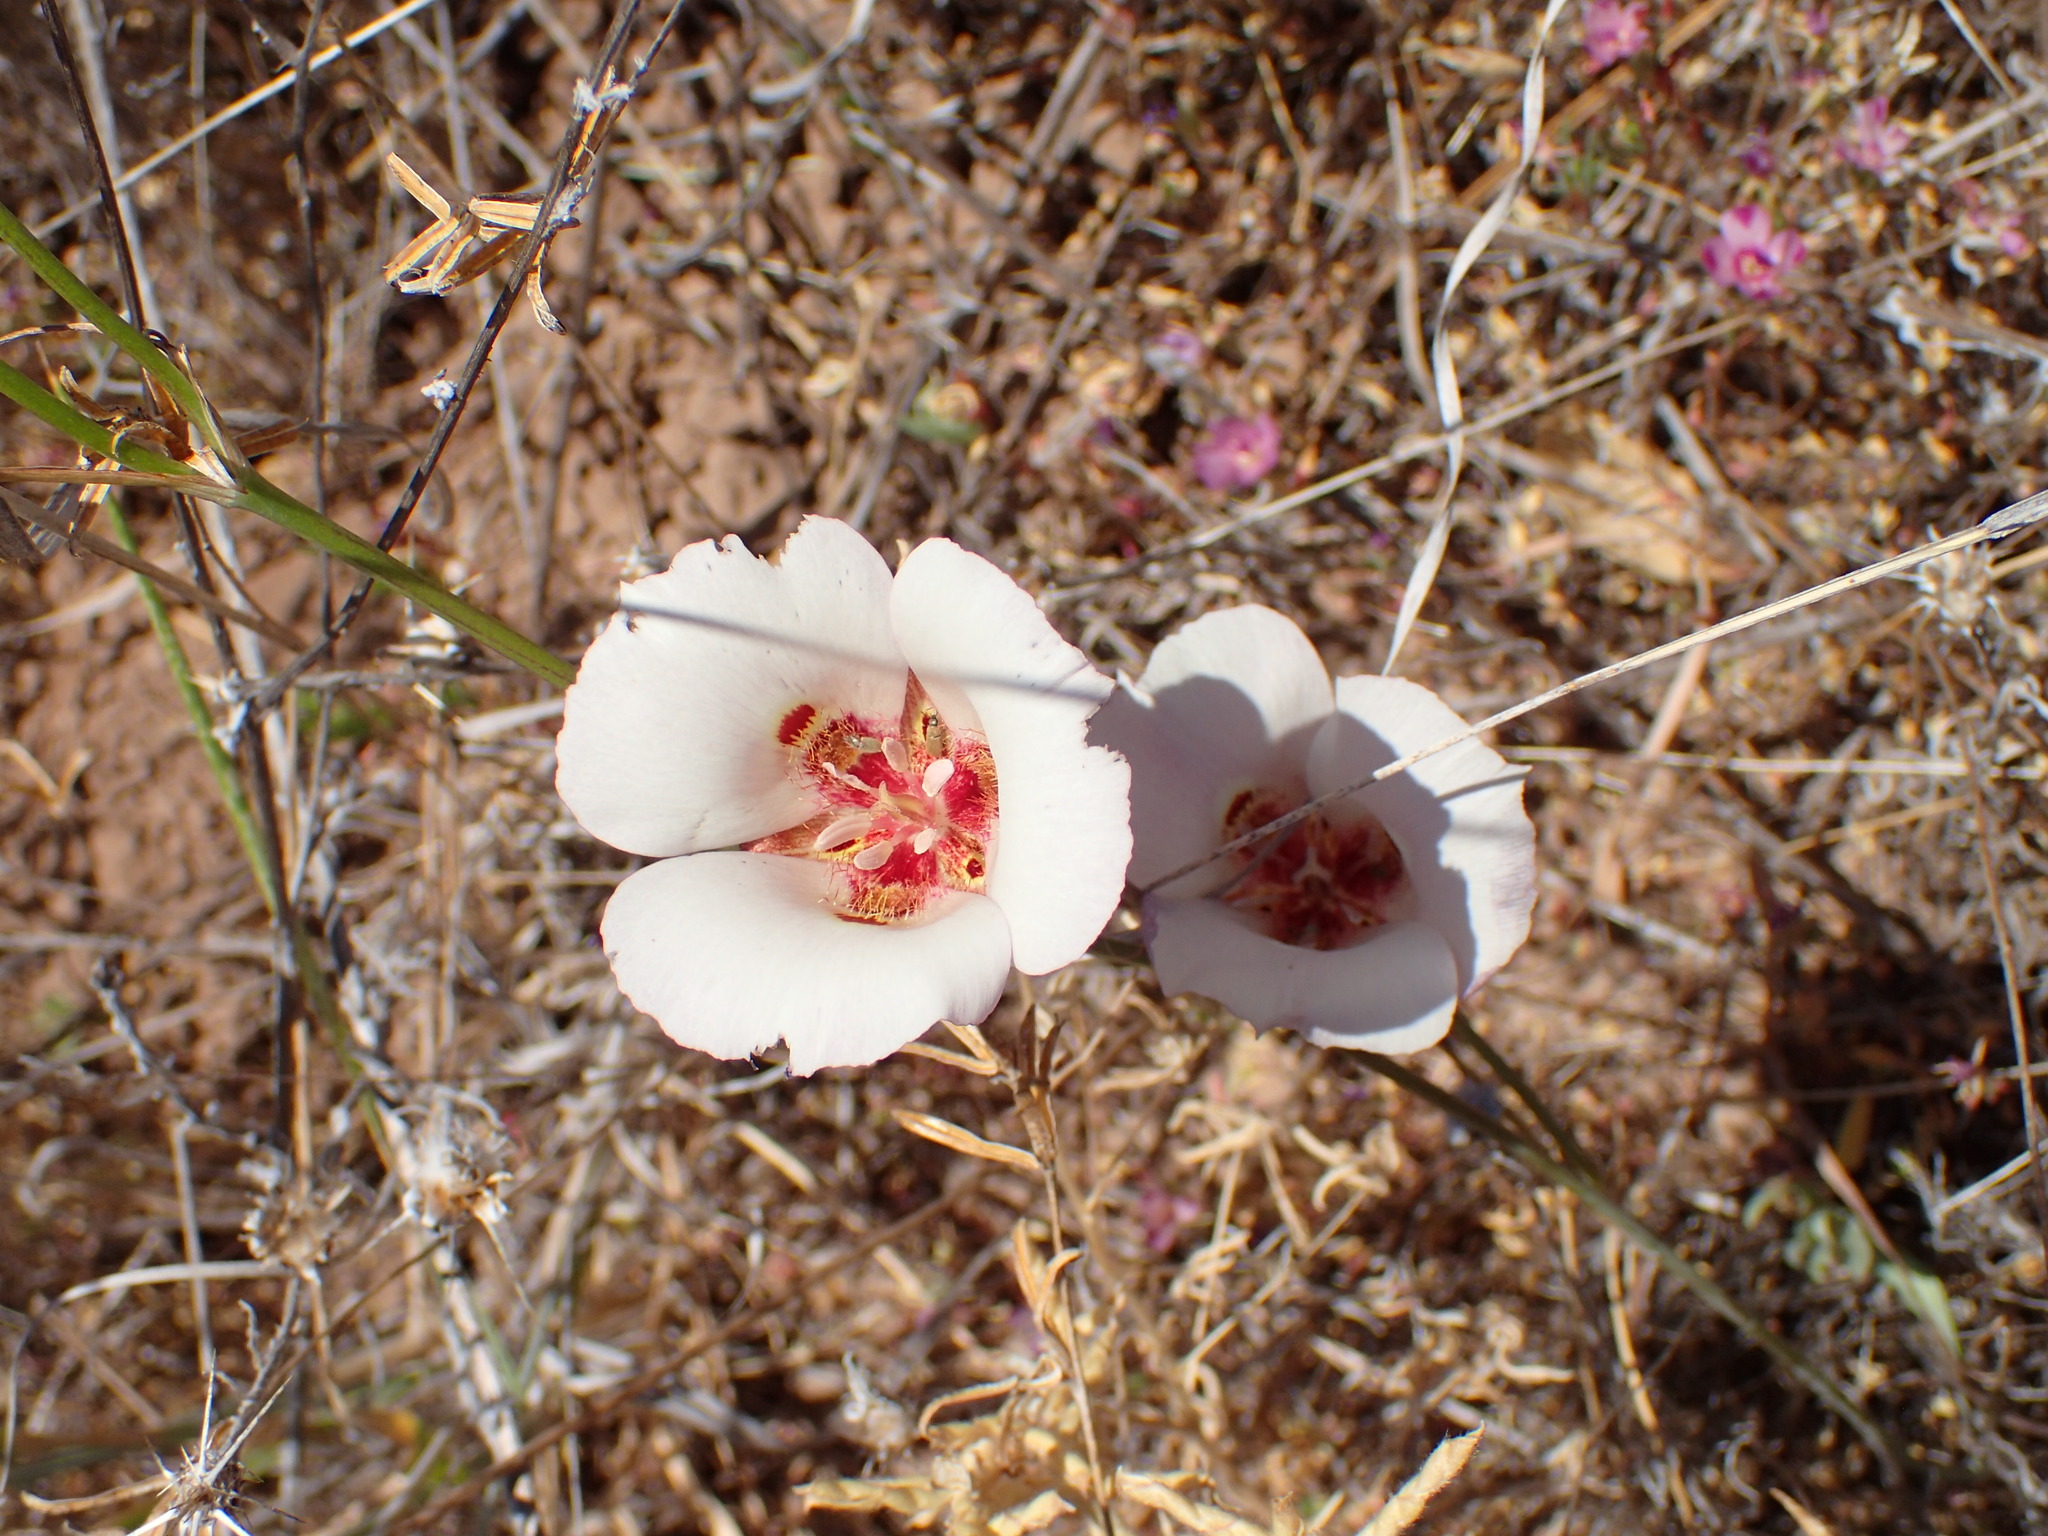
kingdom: Plantae
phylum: Tracheophyta
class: Liliopsida
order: Liliales
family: Liliaceae
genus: Calochortus
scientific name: Calochortus venustus
